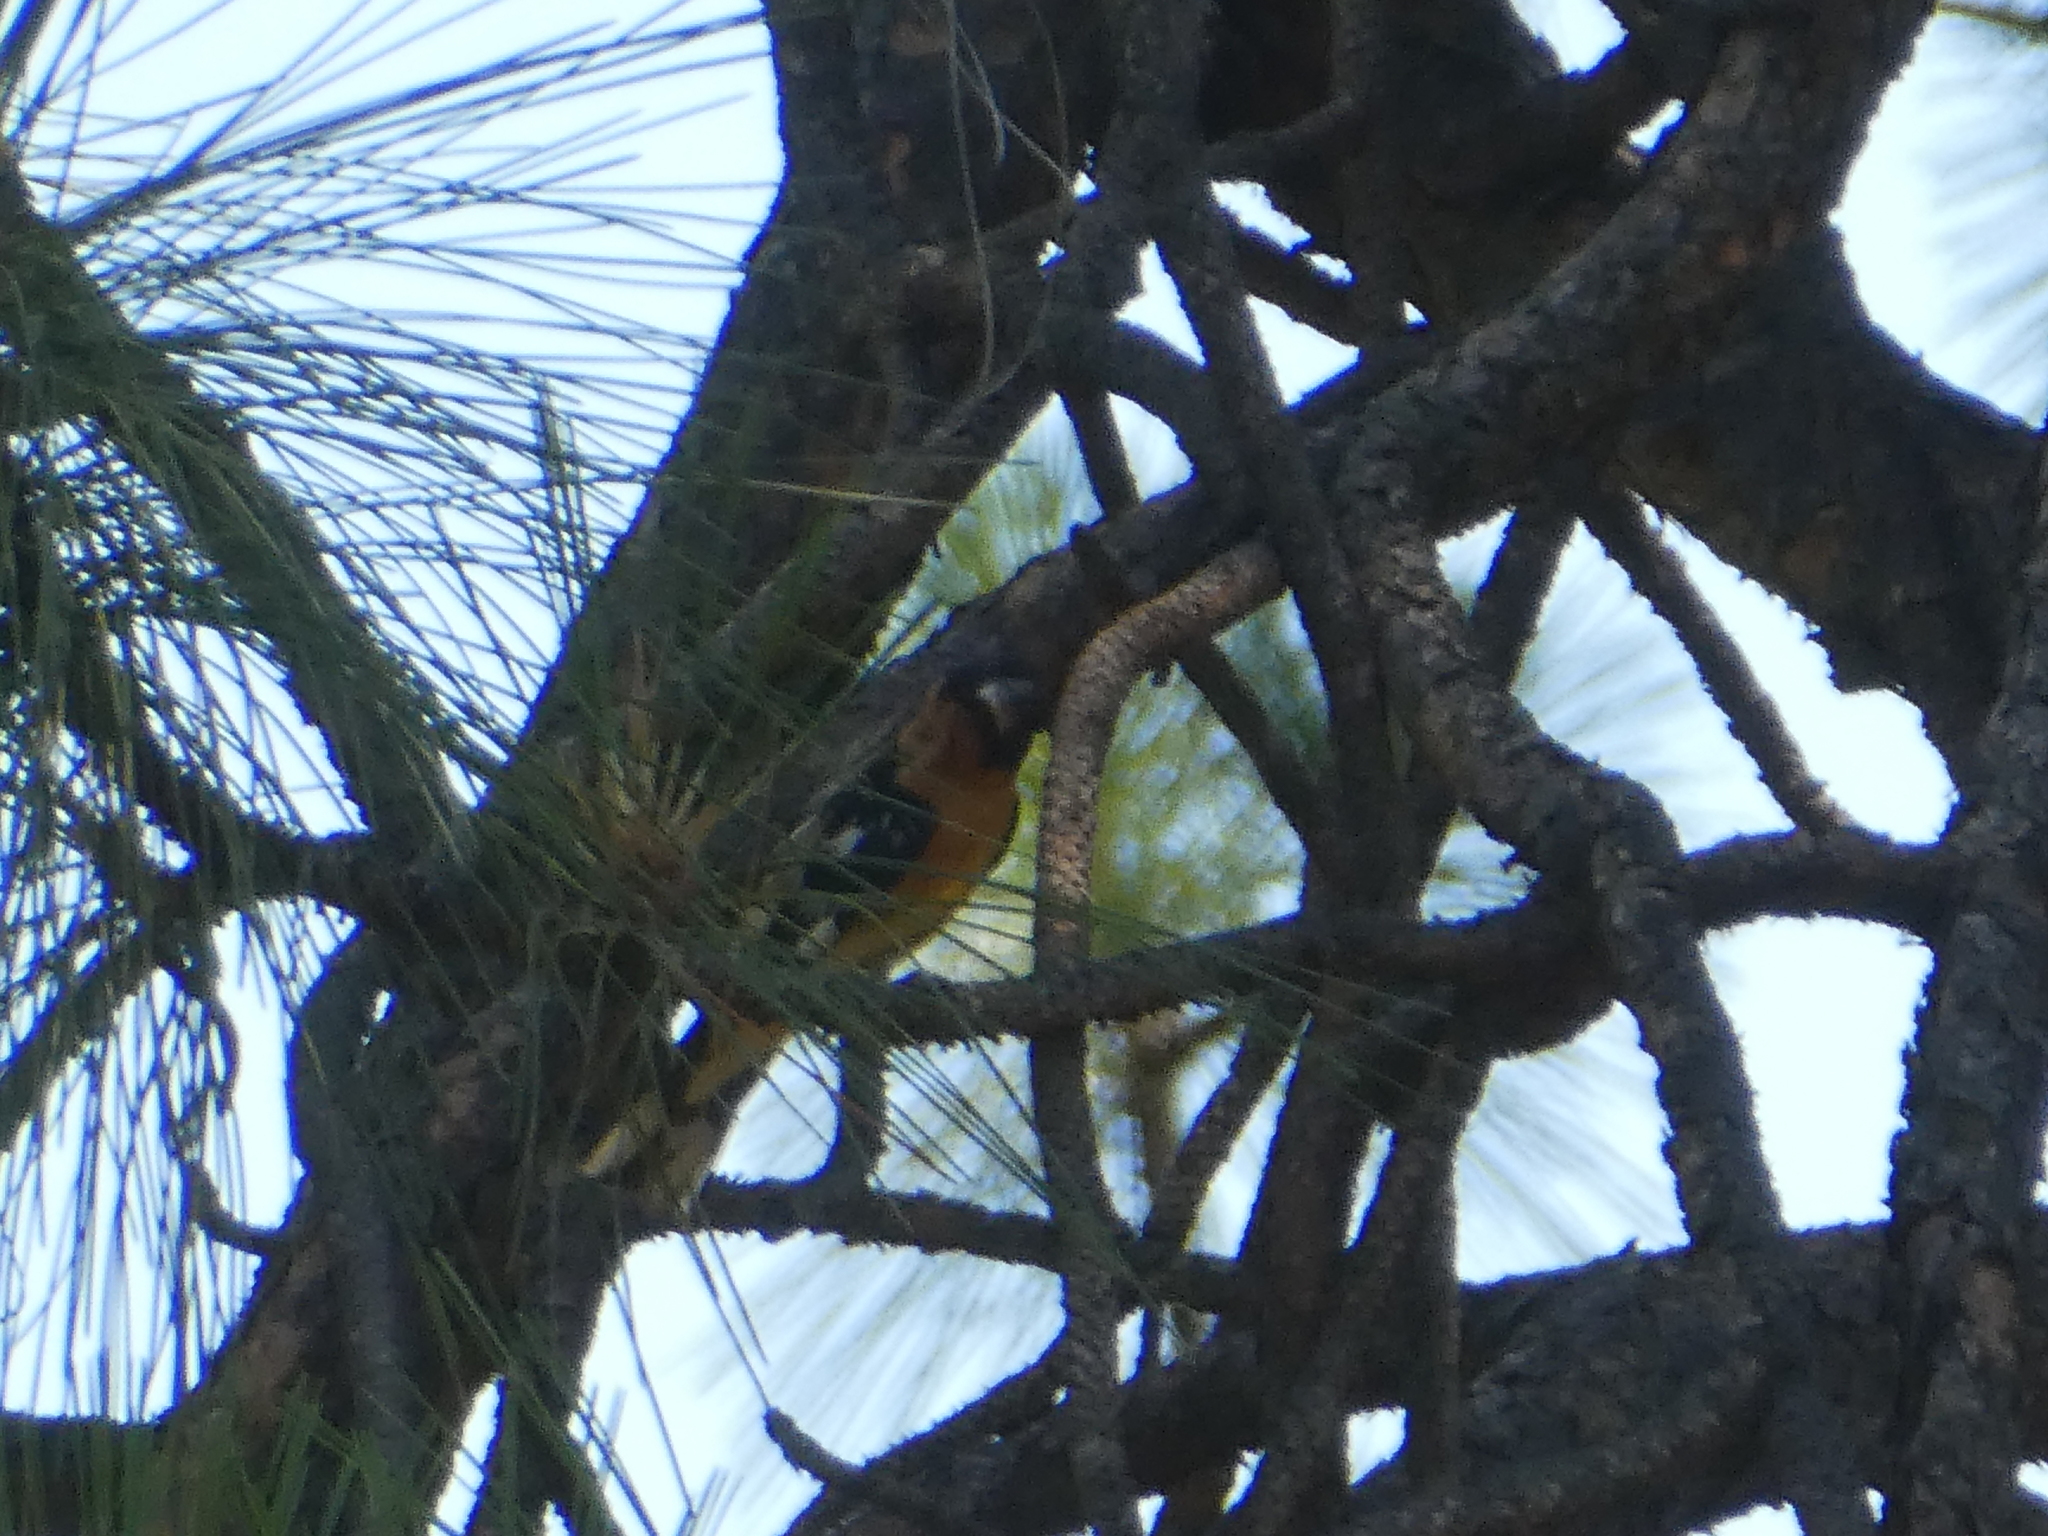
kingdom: Animalia
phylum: Chordata
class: Aves
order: Passeriformes
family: Cardinalidae
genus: Pheucticus
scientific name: Pheucticus melanocephalus
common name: Black-headed grosbeak
